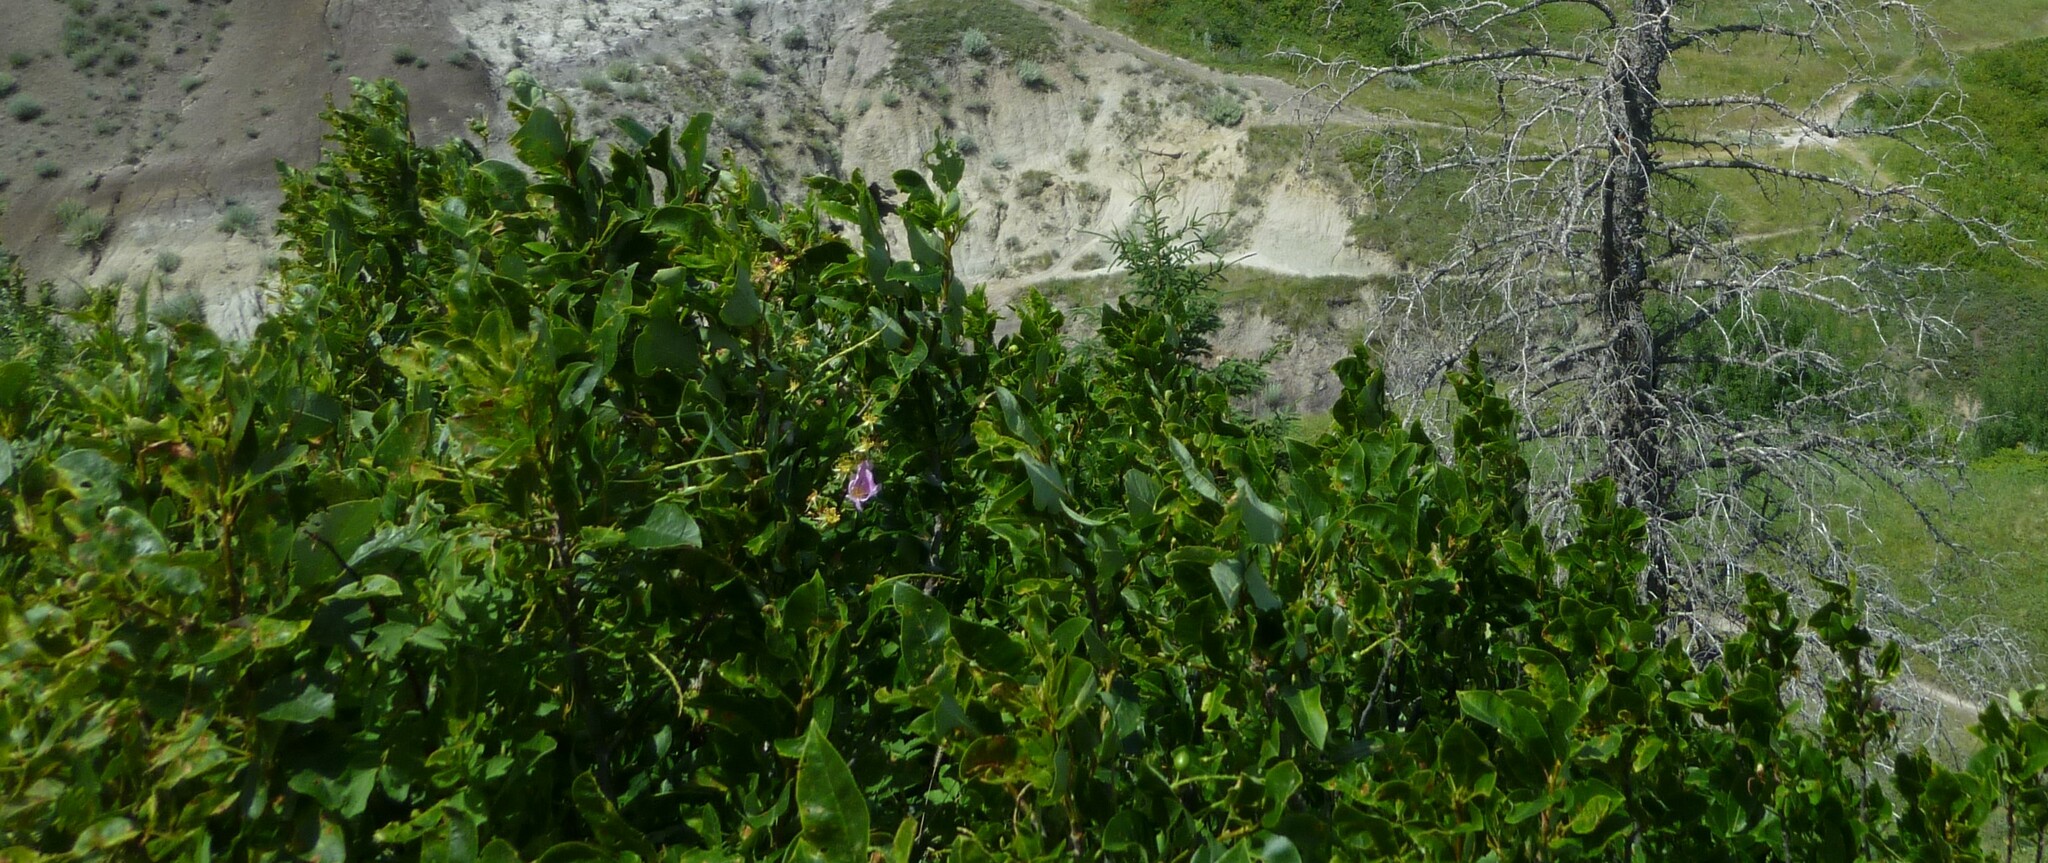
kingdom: Plantae
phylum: Tracheophyta
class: Magnoliopsida
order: Rosales
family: Rosaceae
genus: Prunus
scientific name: Prunus virginiana
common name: Chokecherry
